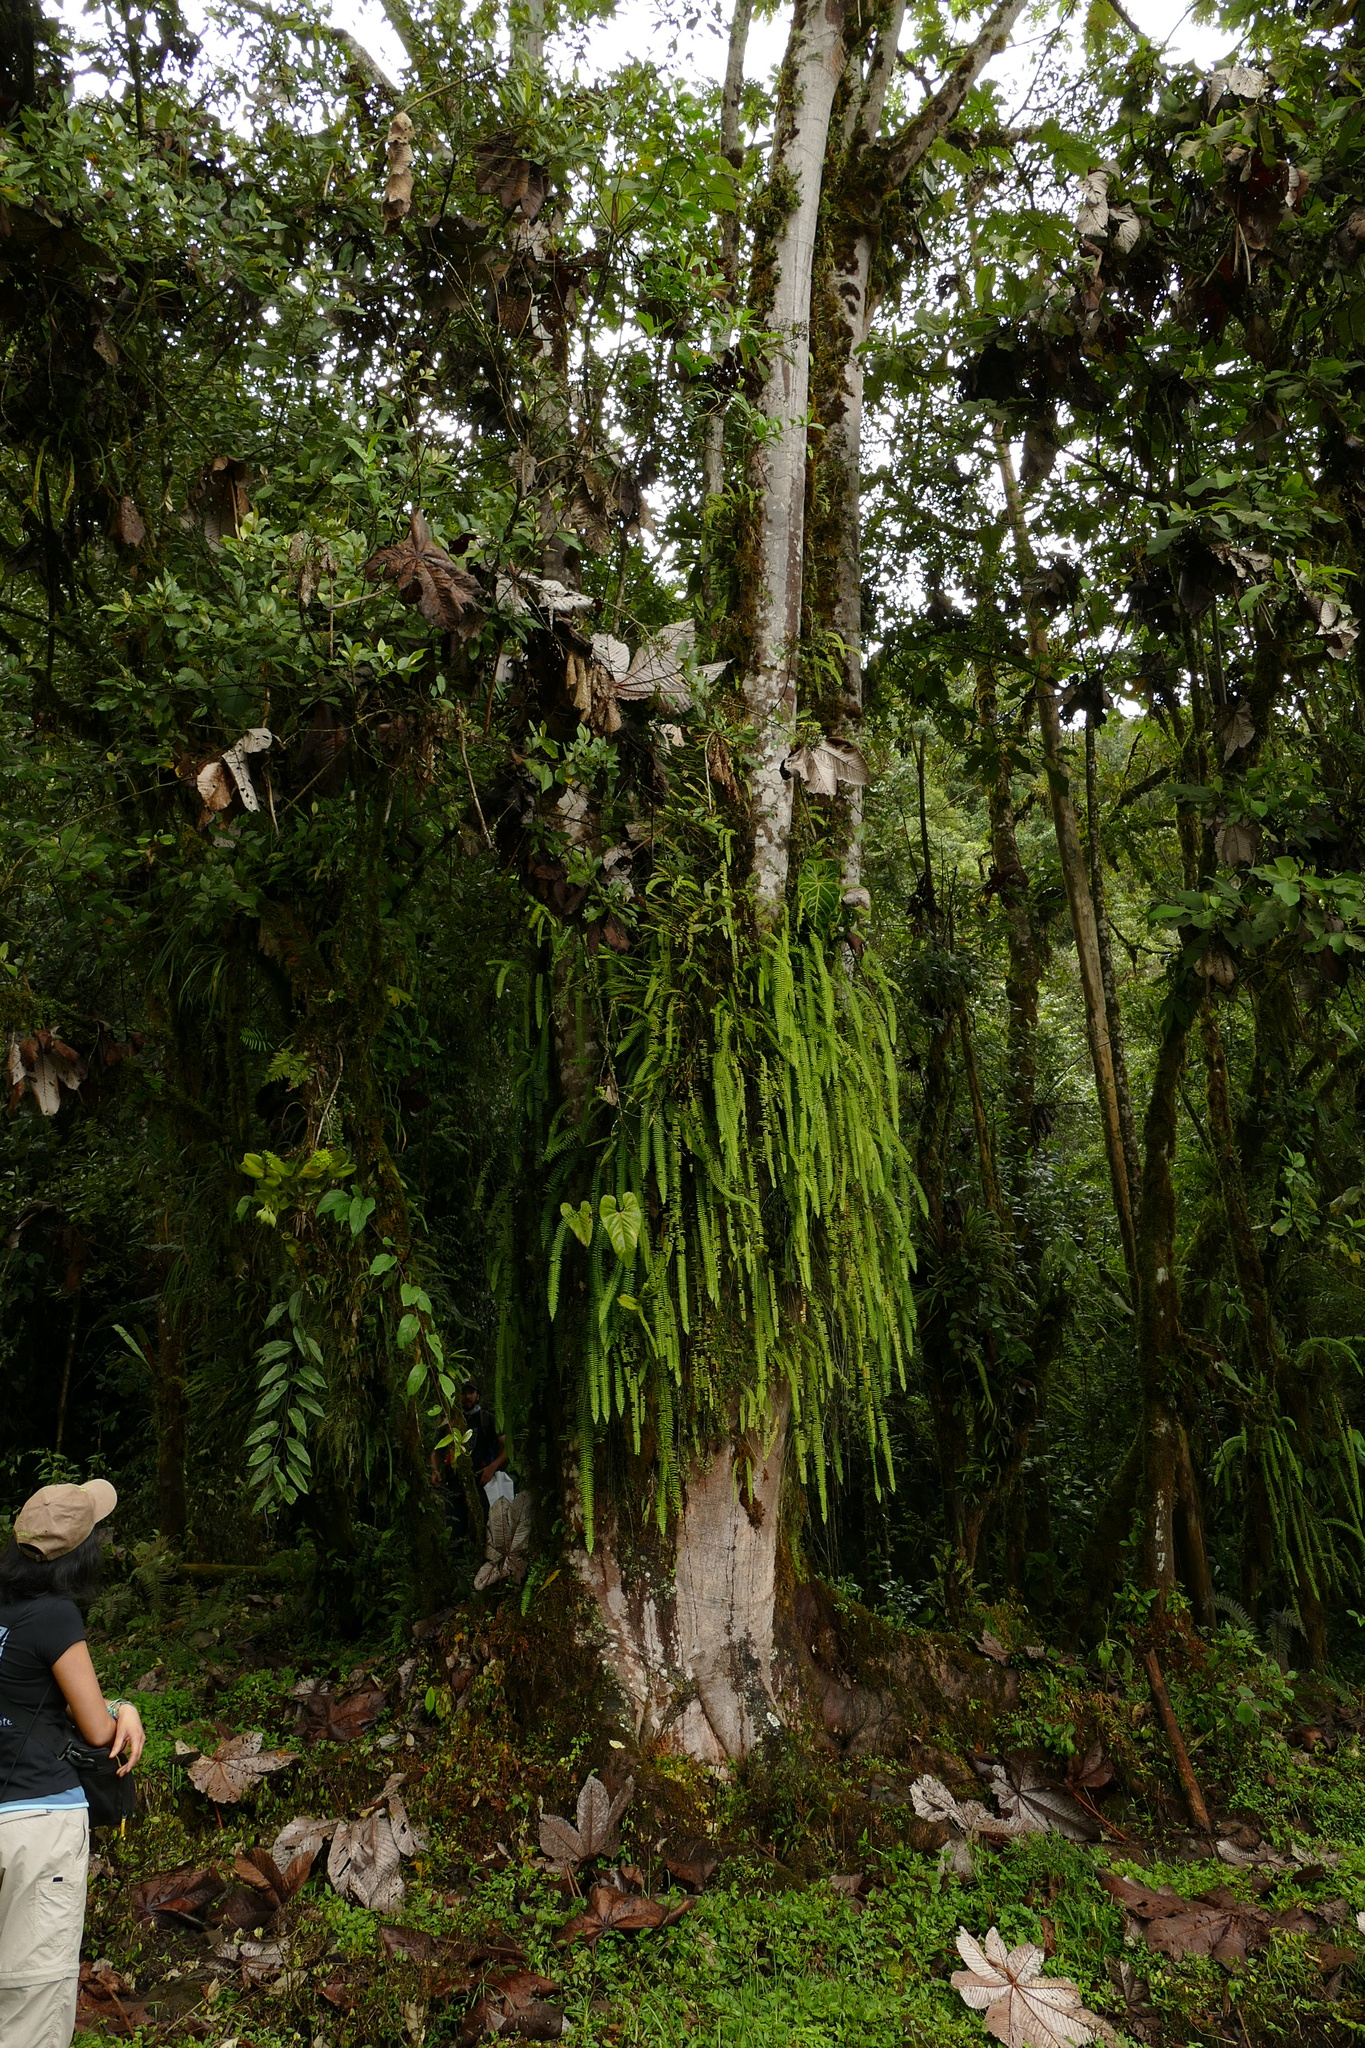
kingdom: Plantae
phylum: Tracheophyta
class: Magnoliopsida
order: Rosales
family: Urticaceae
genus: Cecropia
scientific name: Cecropia bullata
